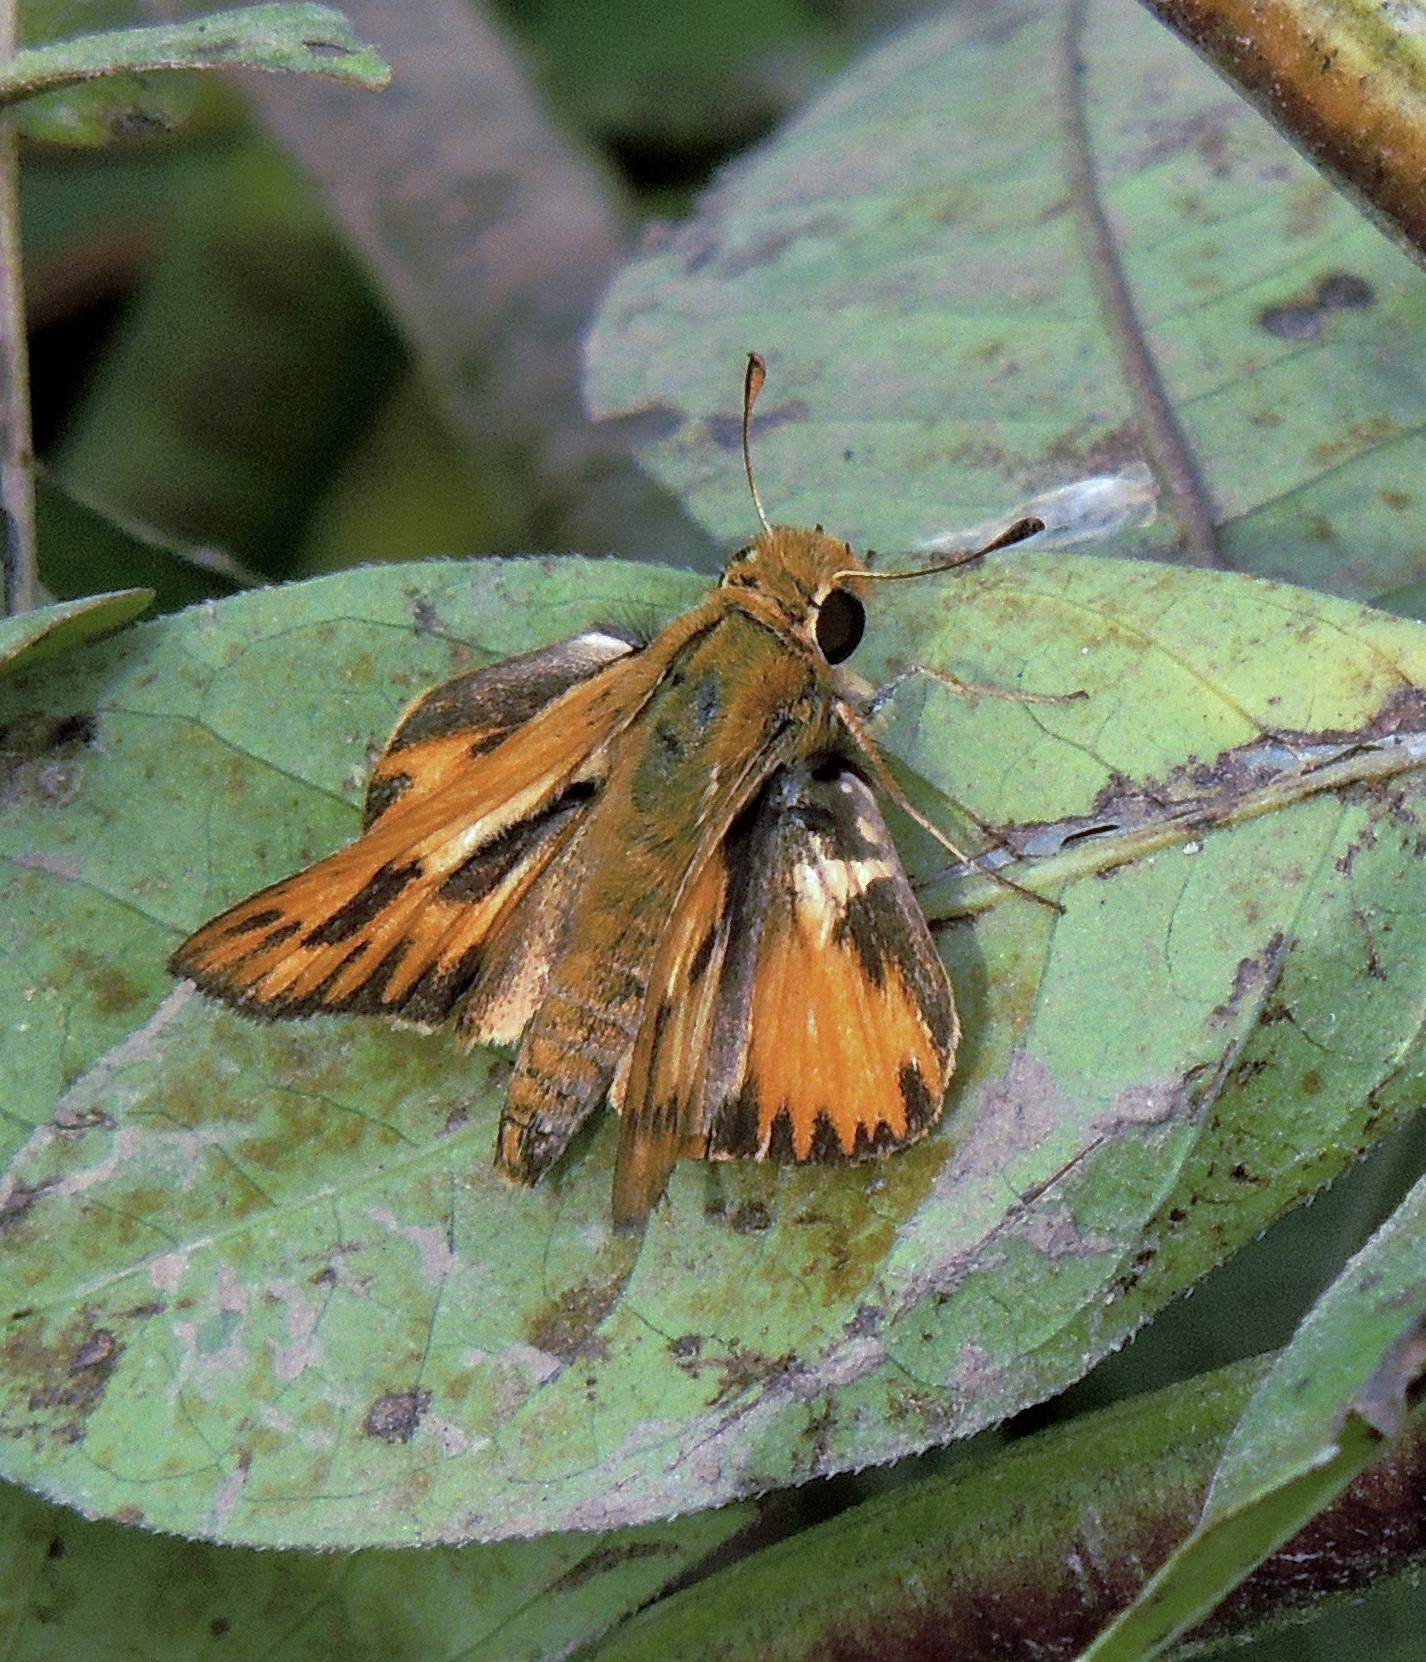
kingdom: Animalia
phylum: Arthropoda
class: Insecta
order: Lepidoptera
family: Hesperiidae
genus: Hylephila
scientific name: Hylephila phyleus
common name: Fiery skipper
